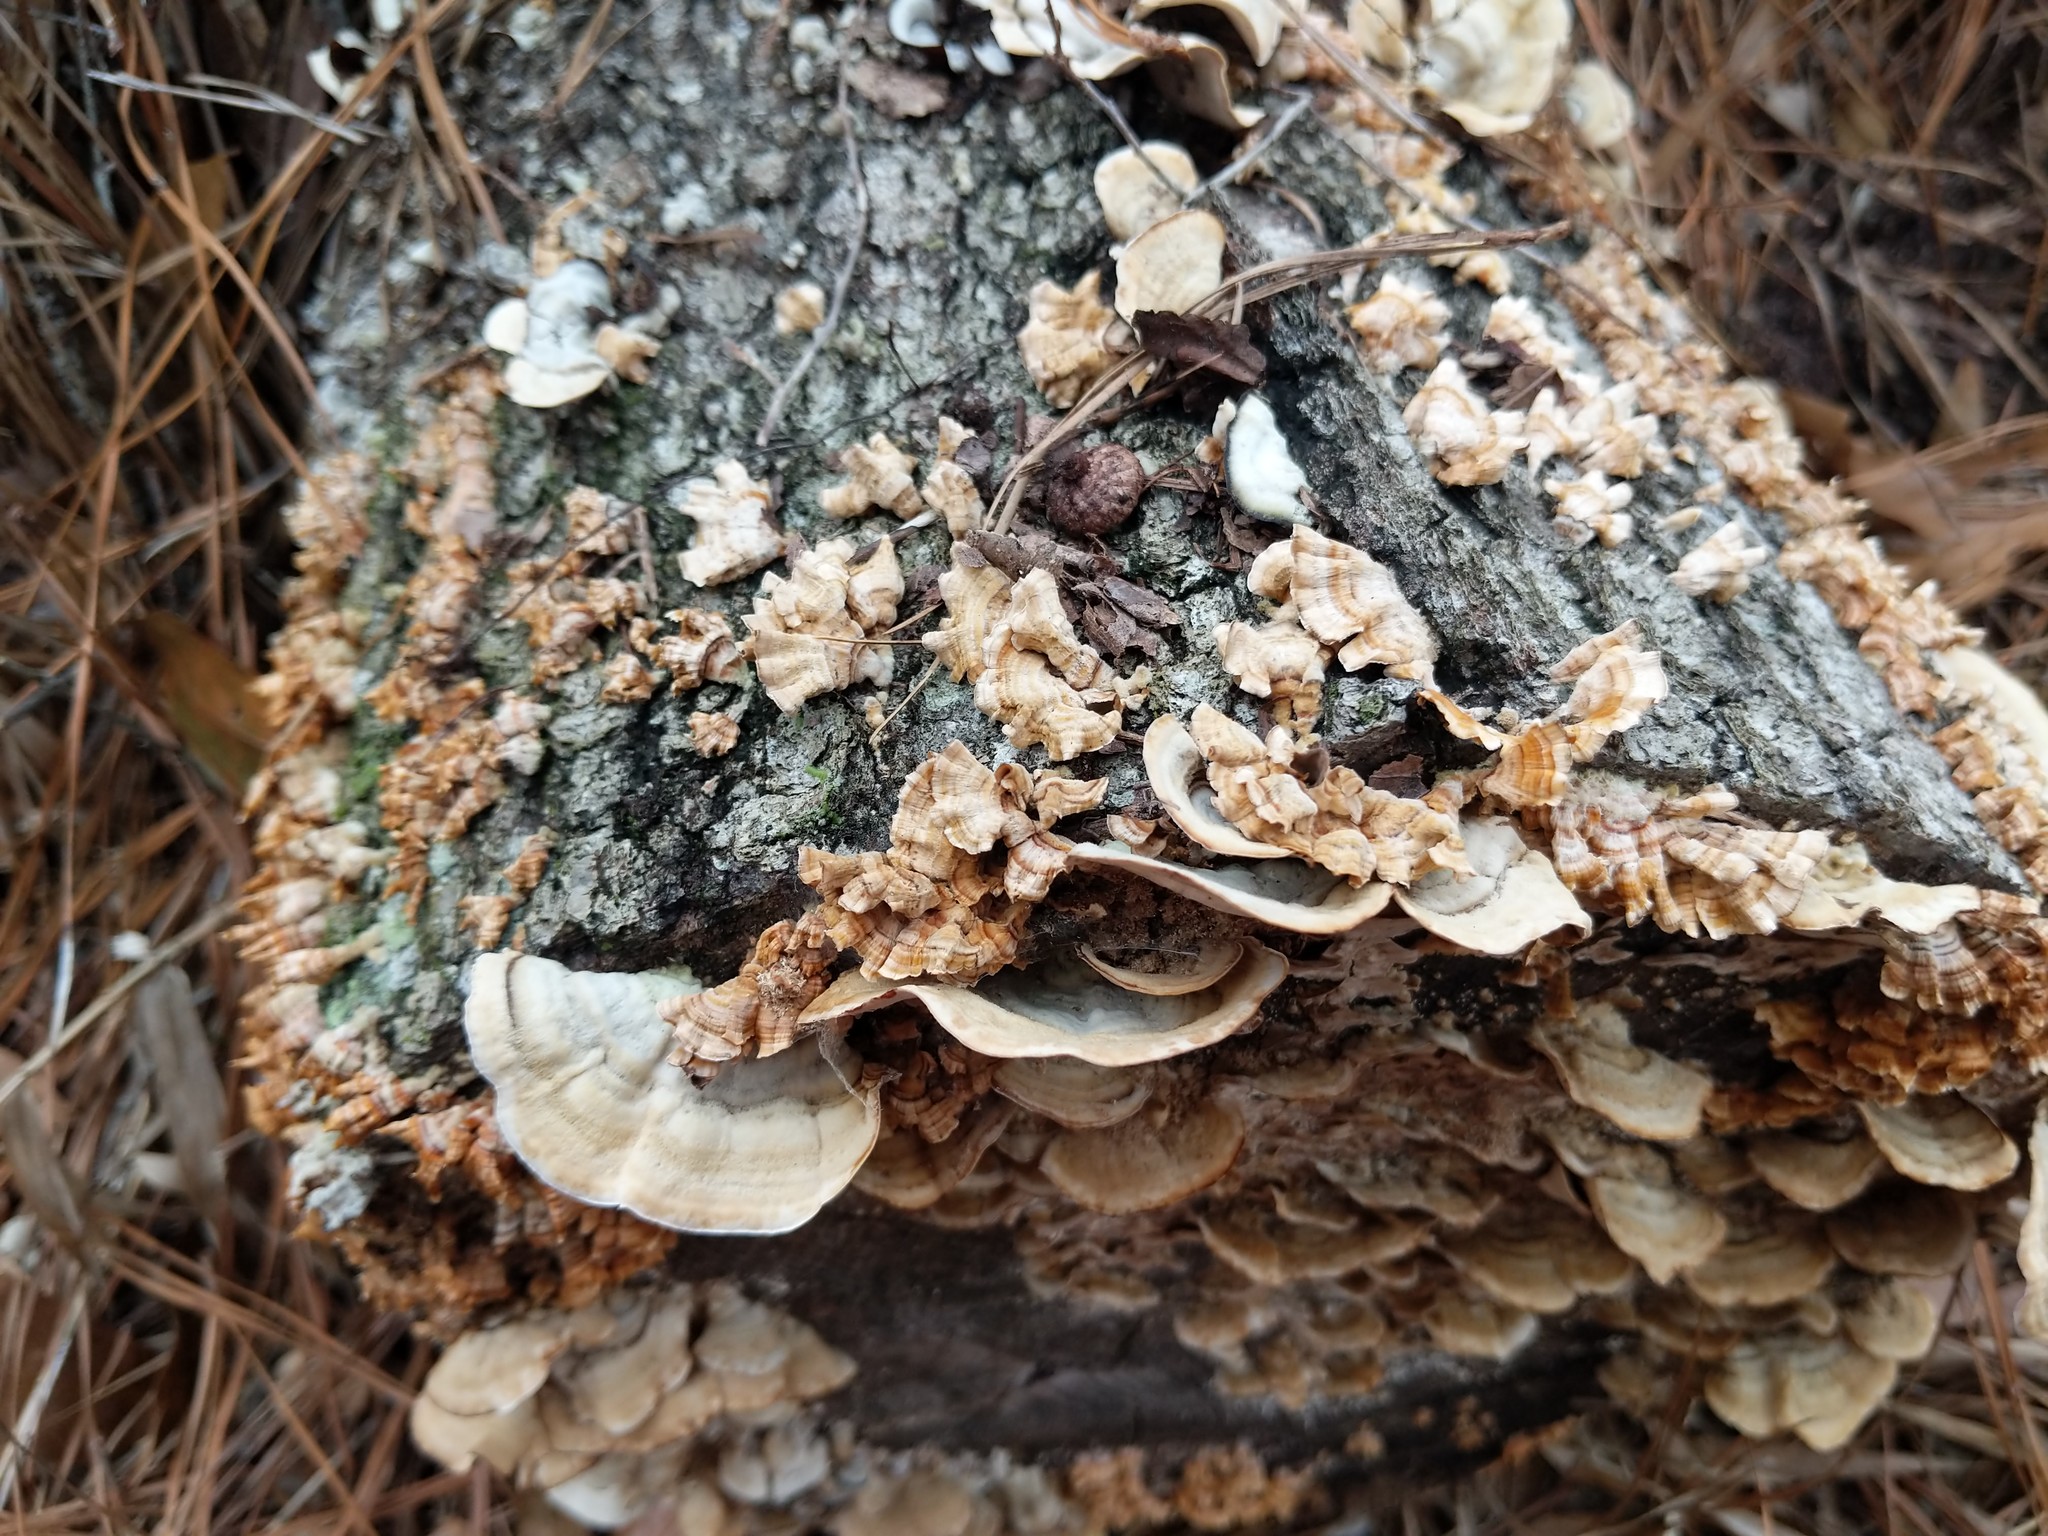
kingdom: Fungi
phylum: Basidiomycota
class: Agaricomycetes
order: Russulales
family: Stereaceae
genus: Stereum
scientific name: Stereum
